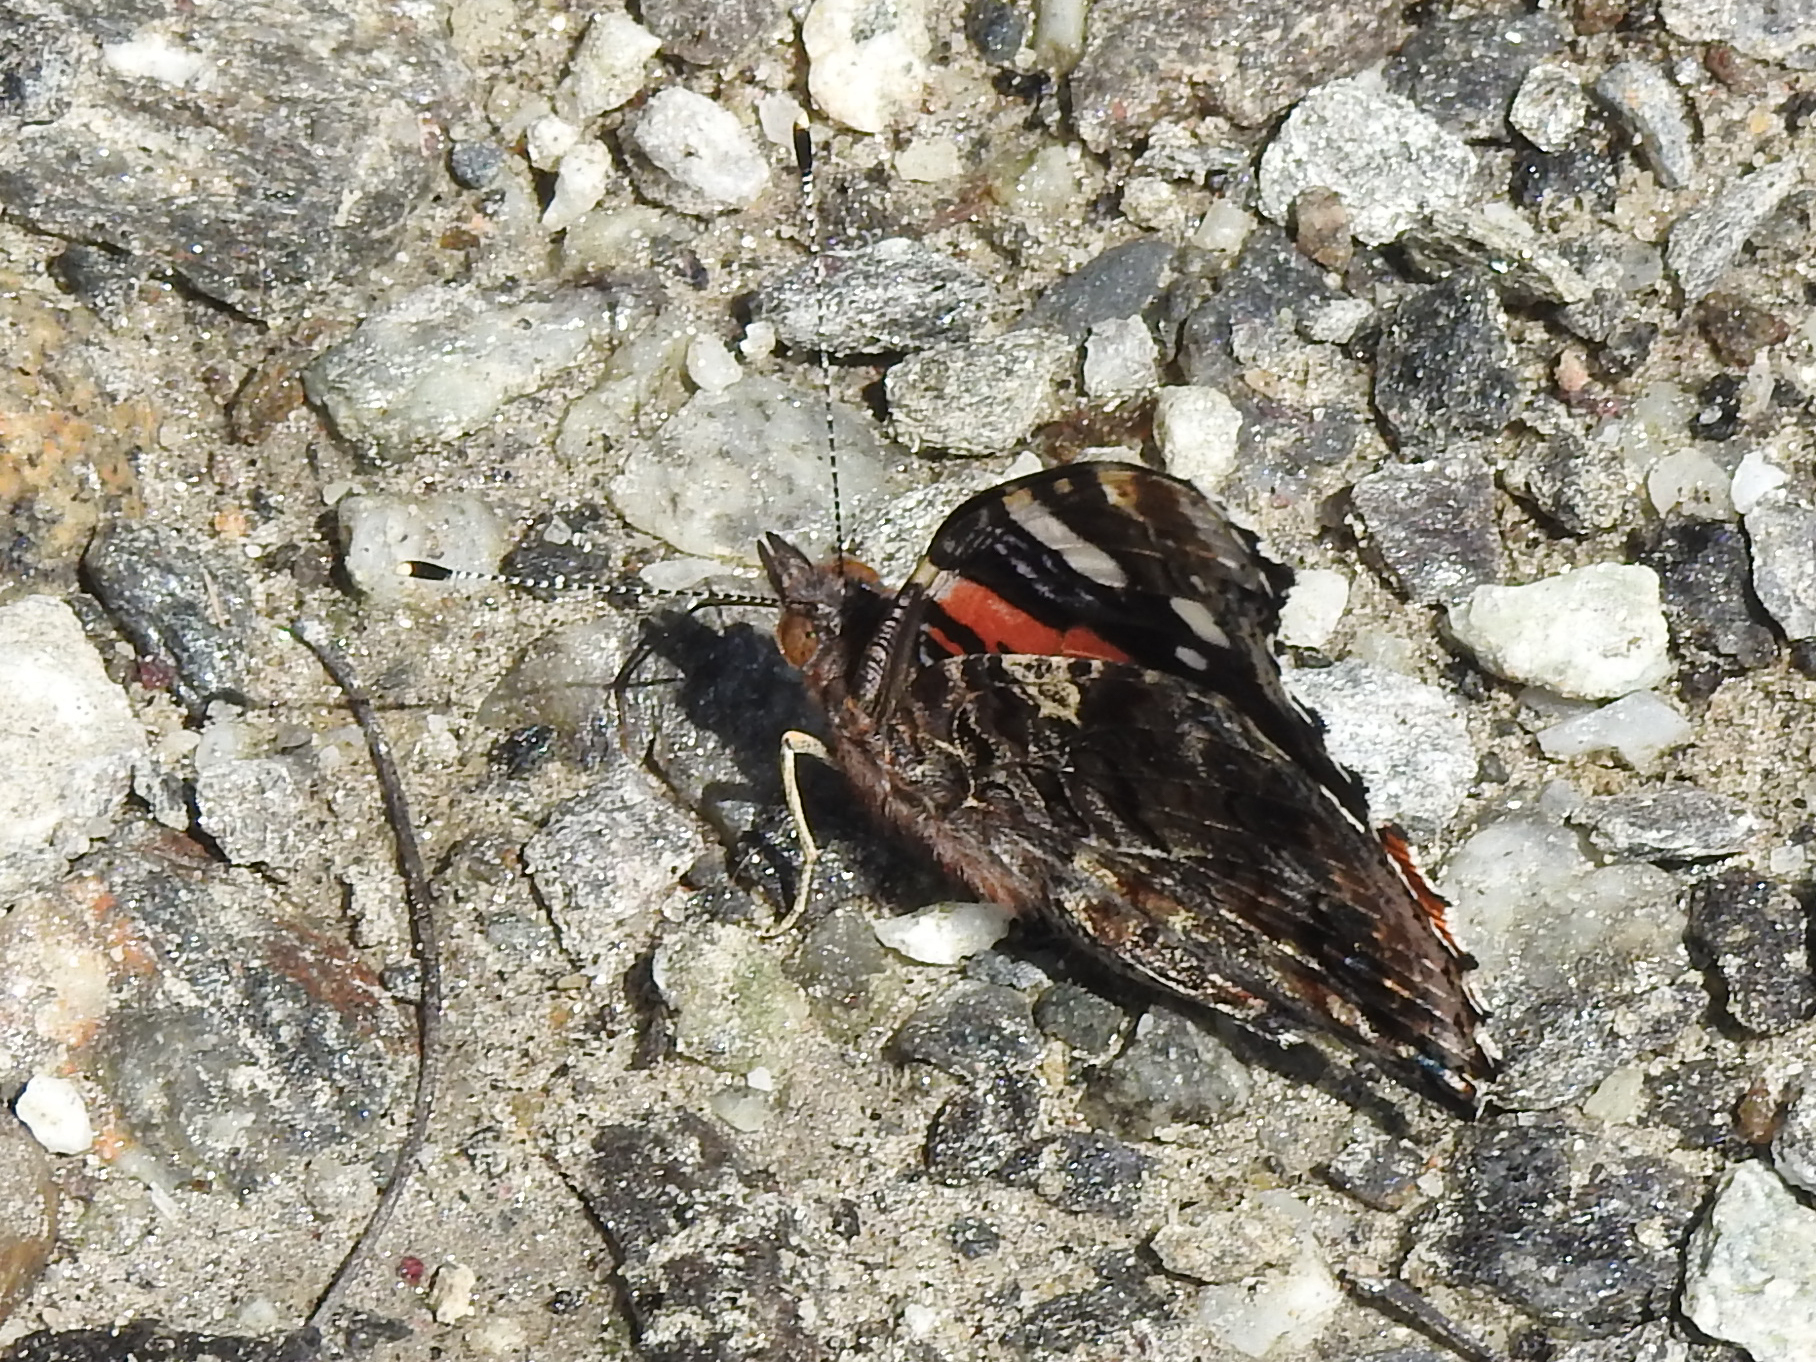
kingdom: Animalia
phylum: Arthropoda
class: Insecta
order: Lepidoptera
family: Nymphalidae
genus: Vanessa
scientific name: Vanessa atalanta
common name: Red admiral
